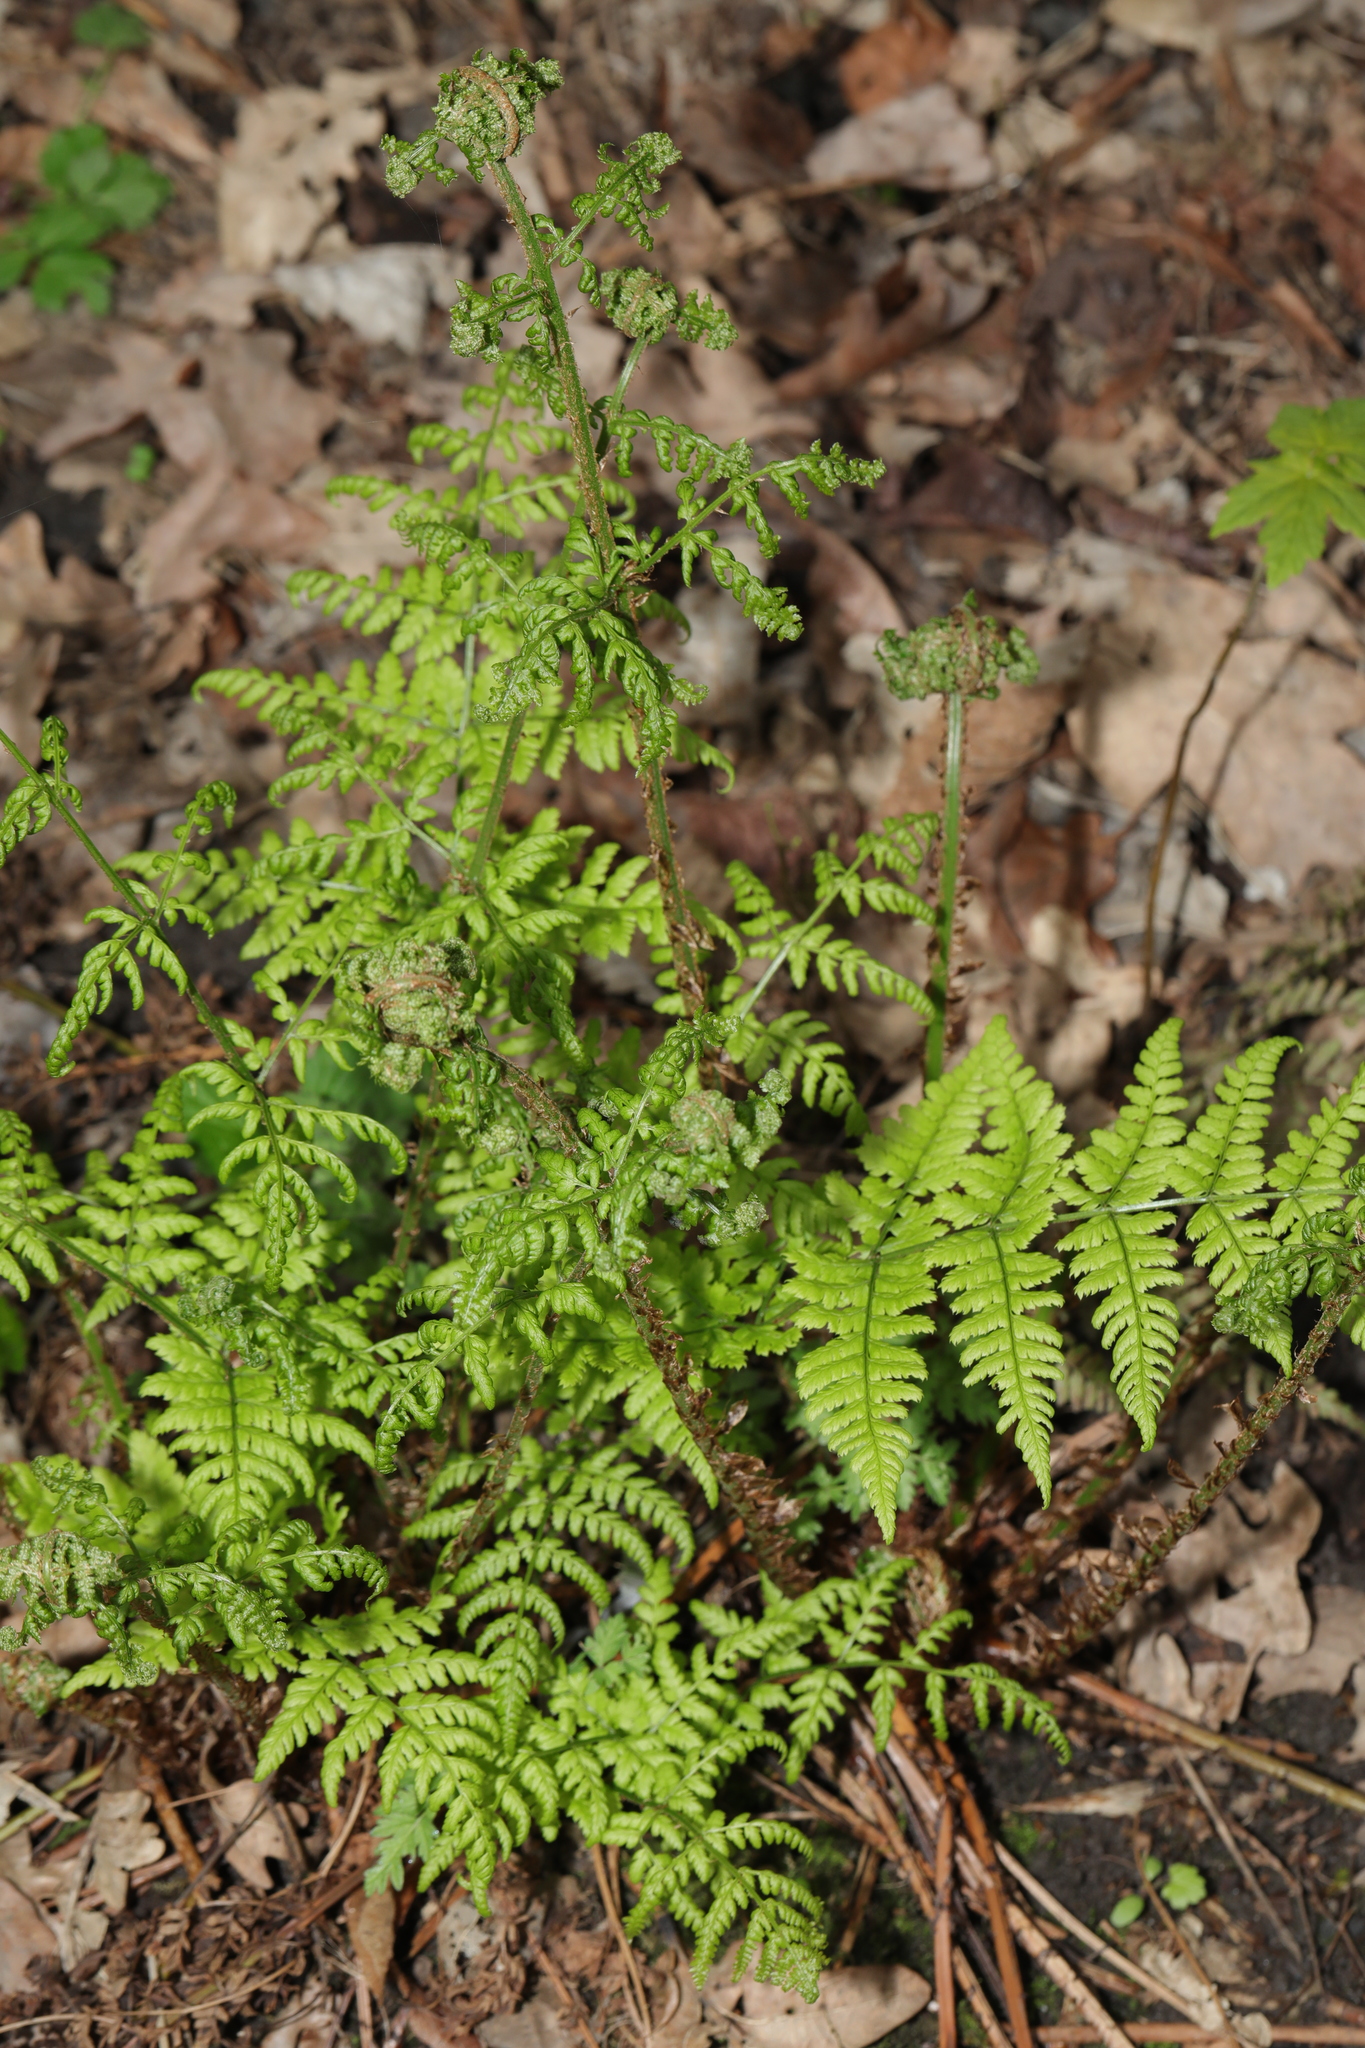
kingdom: Plantae
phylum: Tracheophyta
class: Polypodiopsida
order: Polypodiales
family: Dryopteridaceae
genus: Dryopteris
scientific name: Dryopteris dilatata
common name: Broad buckler-fern
